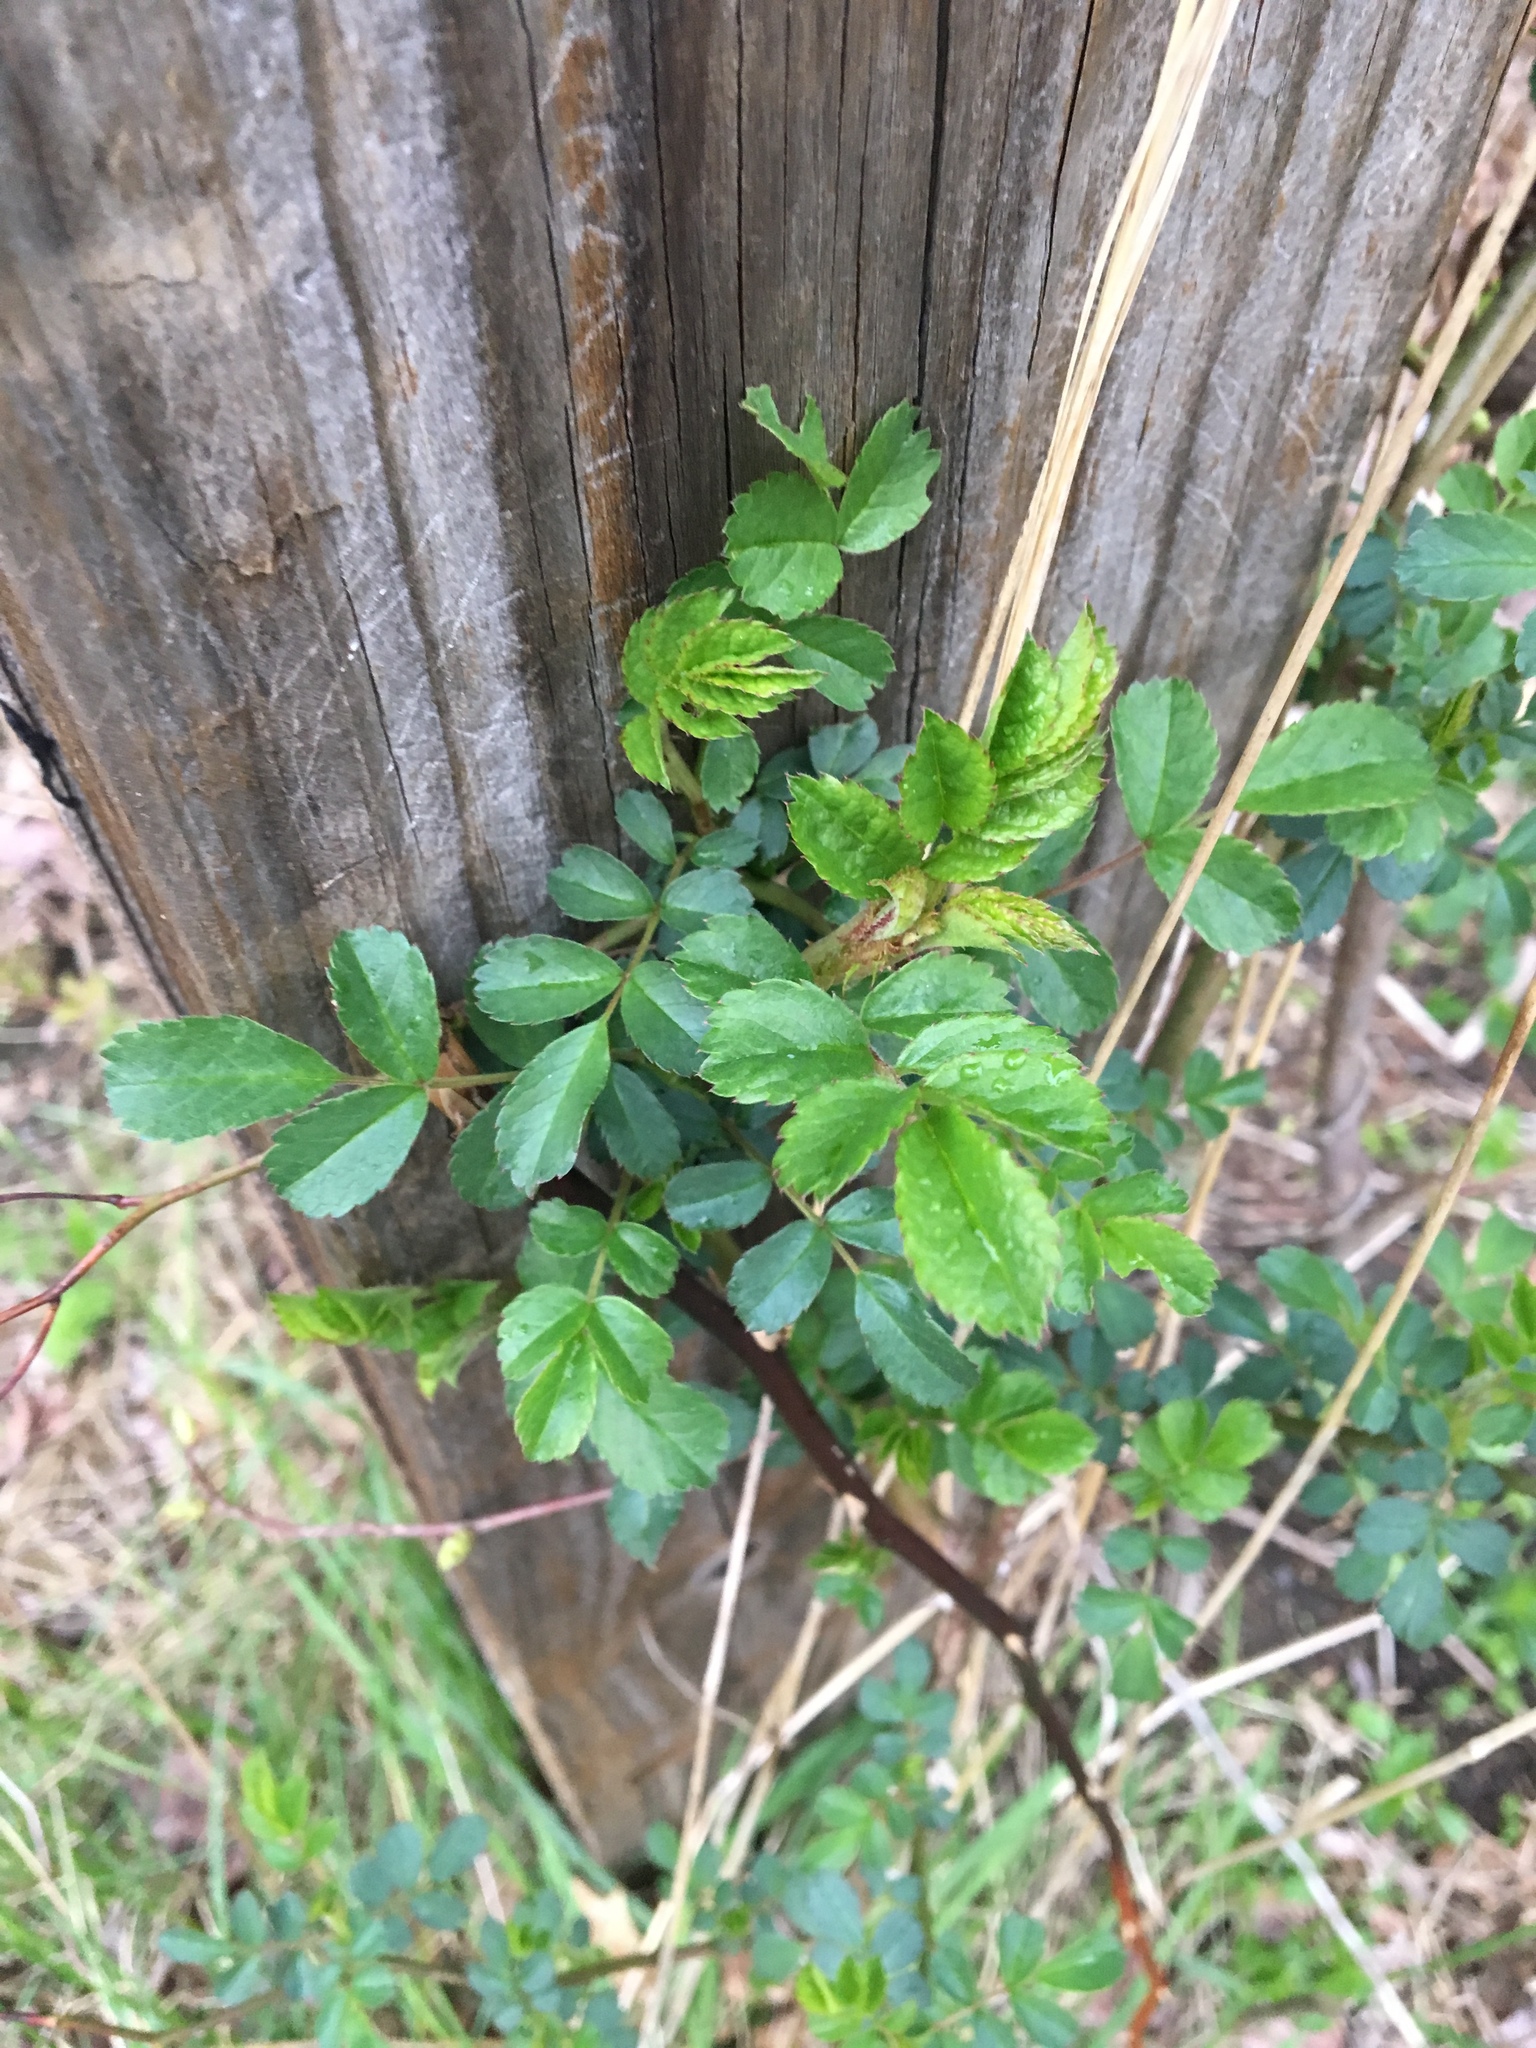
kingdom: Plantae
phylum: Tracheophyta
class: Magnoliopsida
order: Rosales
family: Rosaceae
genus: Rosa
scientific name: Rosa multiflora
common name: Multiflora rose
